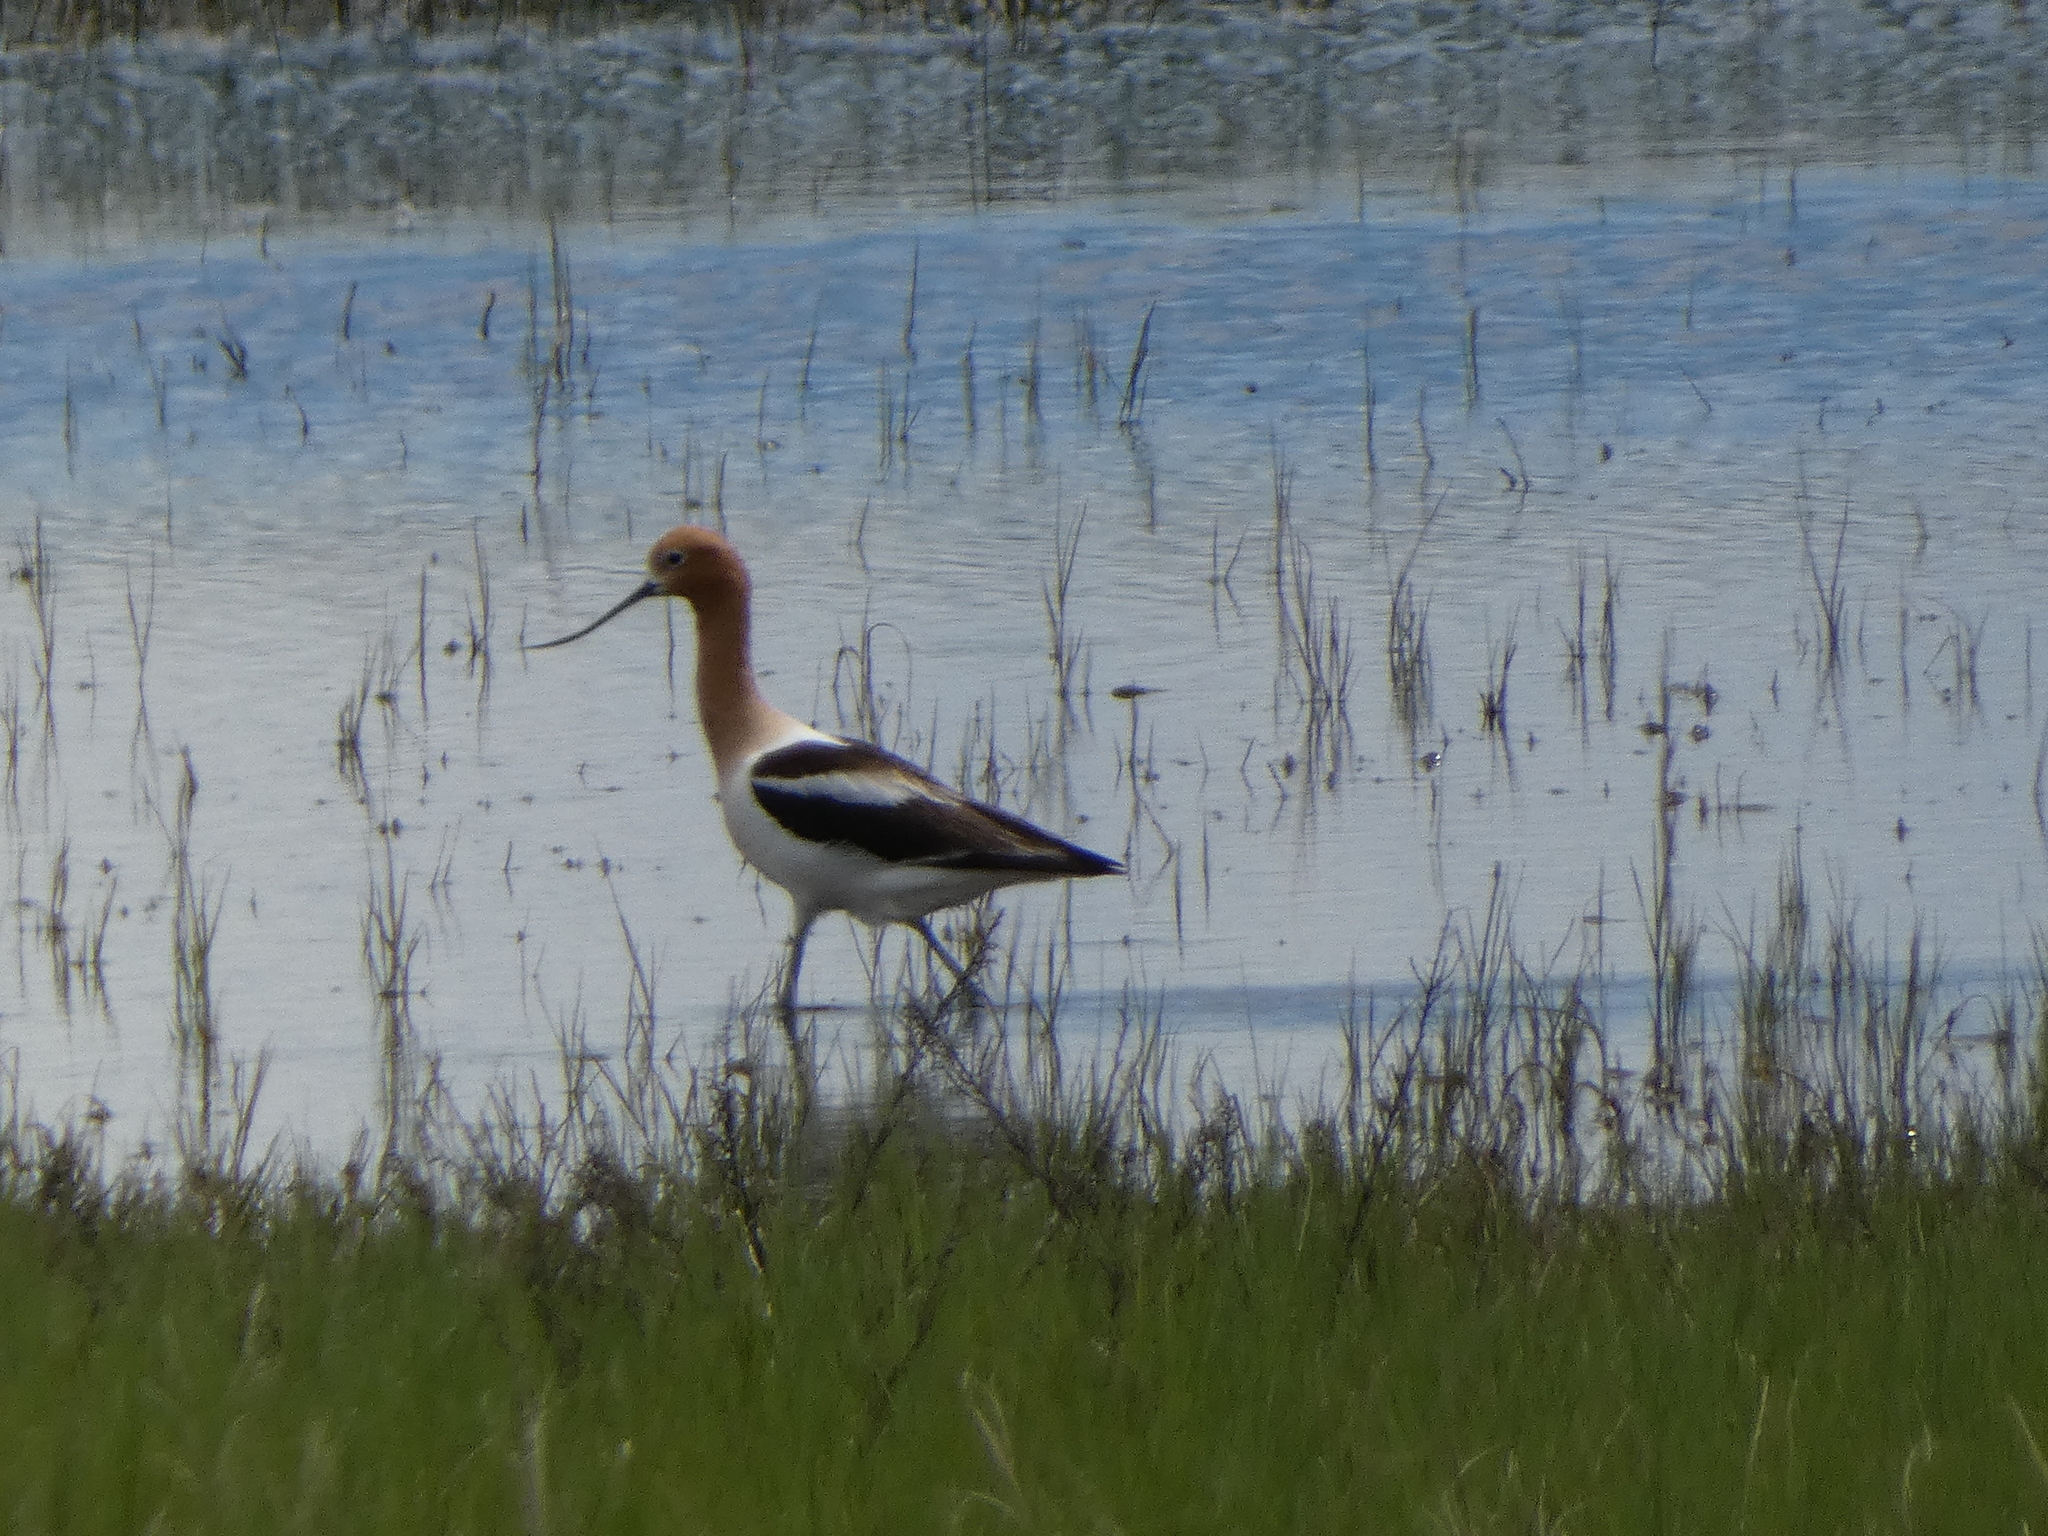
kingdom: Animalia
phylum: Chordata
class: Aves
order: Charadriiformes
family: Recurvirostridae
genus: Recurvirostra
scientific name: Recurvirostra americana
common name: American avocet
